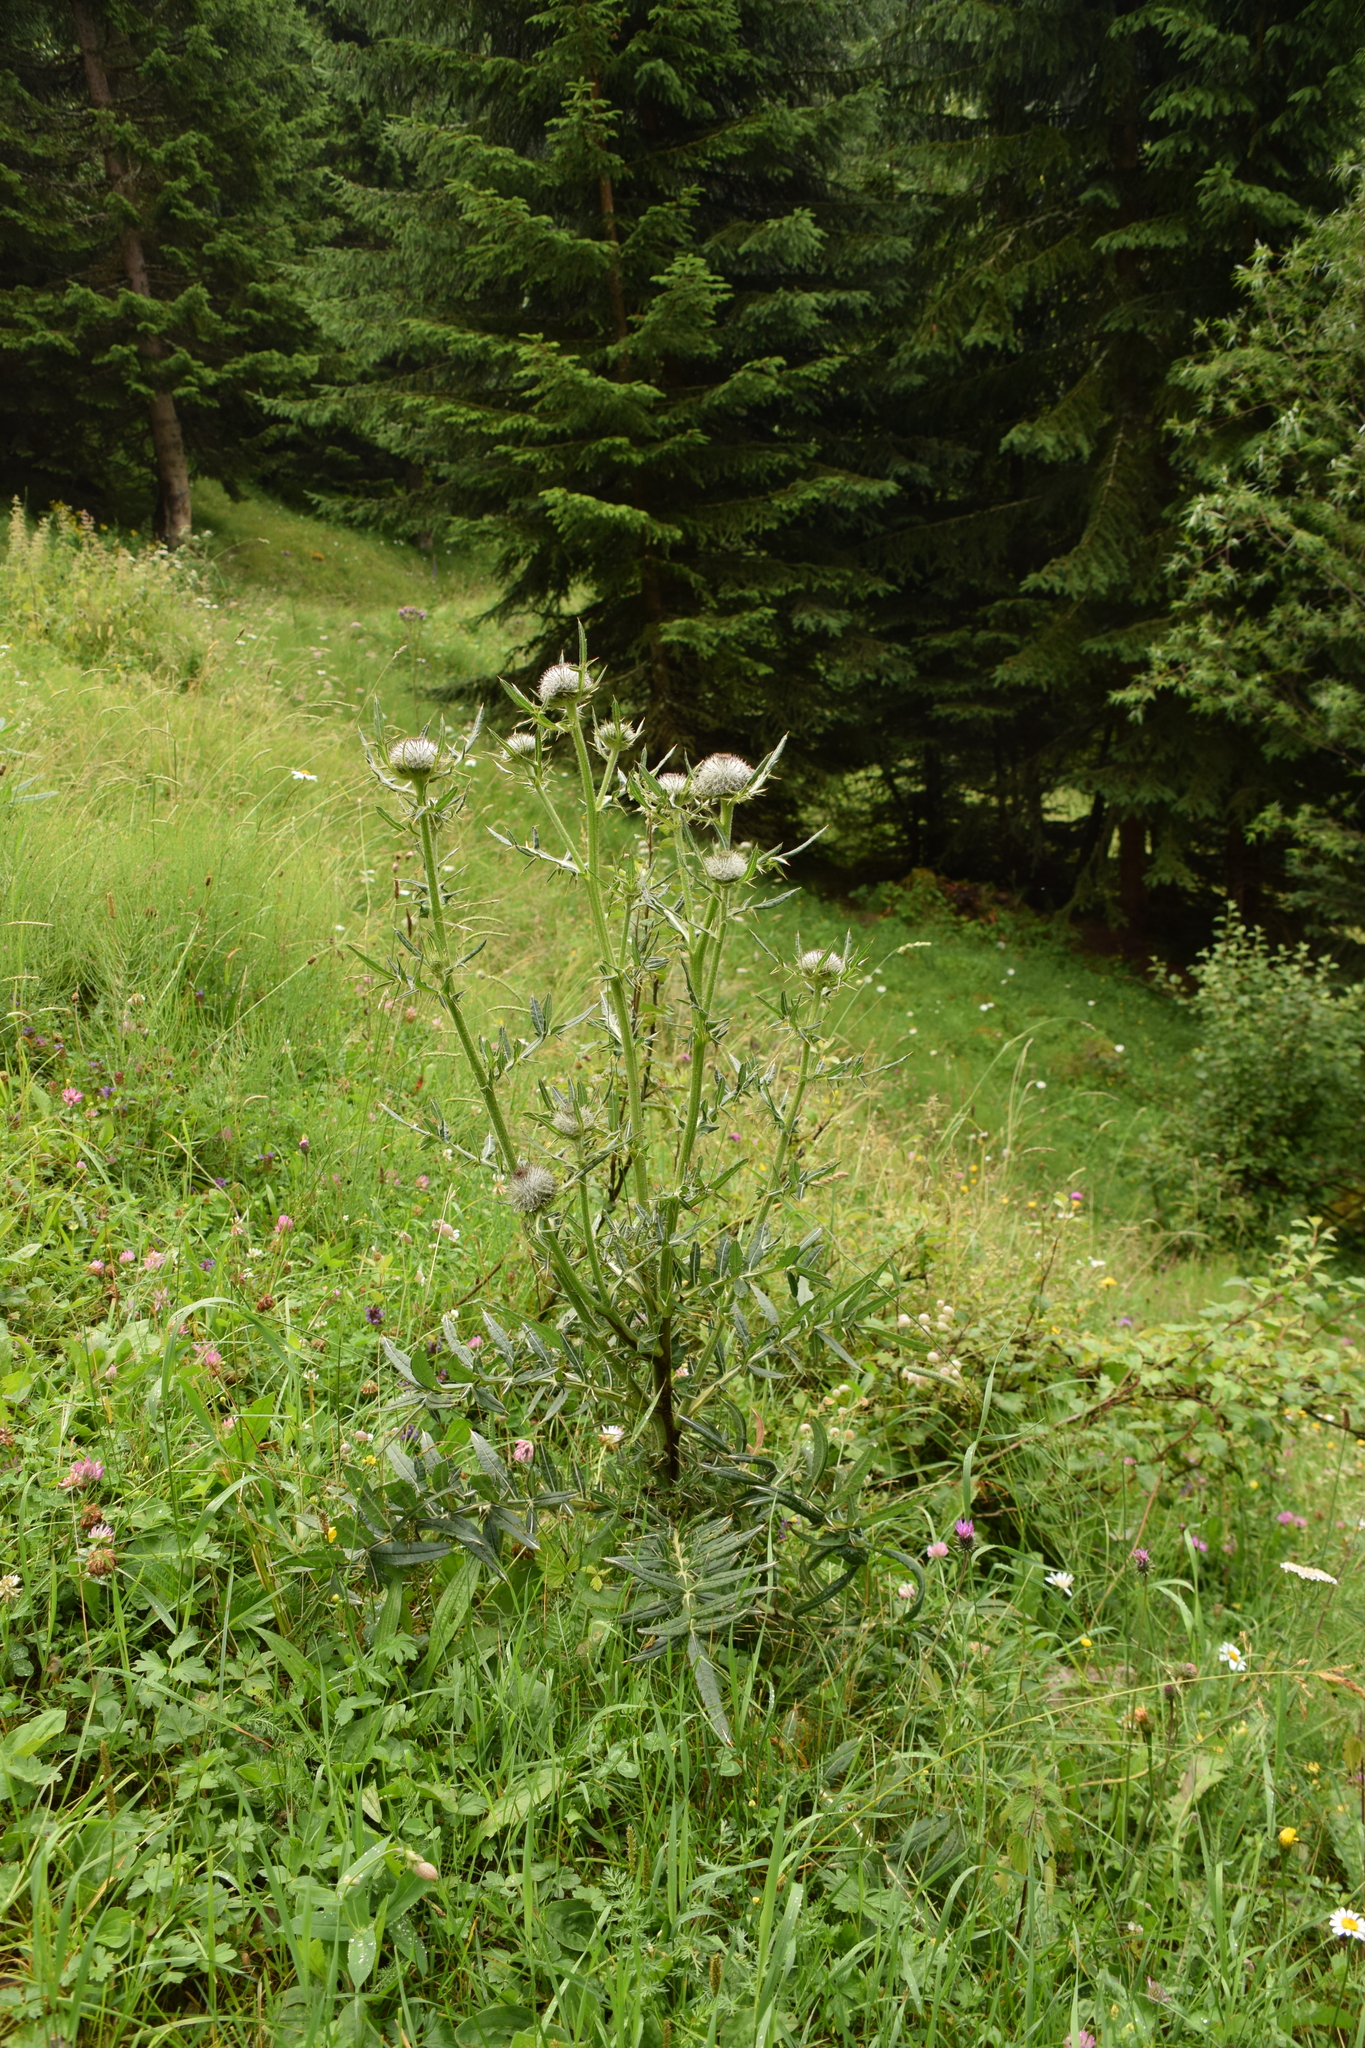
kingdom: Plantae
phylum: Tracheophyta
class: Magnoliopsida
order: Asterales
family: Asteraceae
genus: Lophiolepis
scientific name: Lophiolepis eriophora
